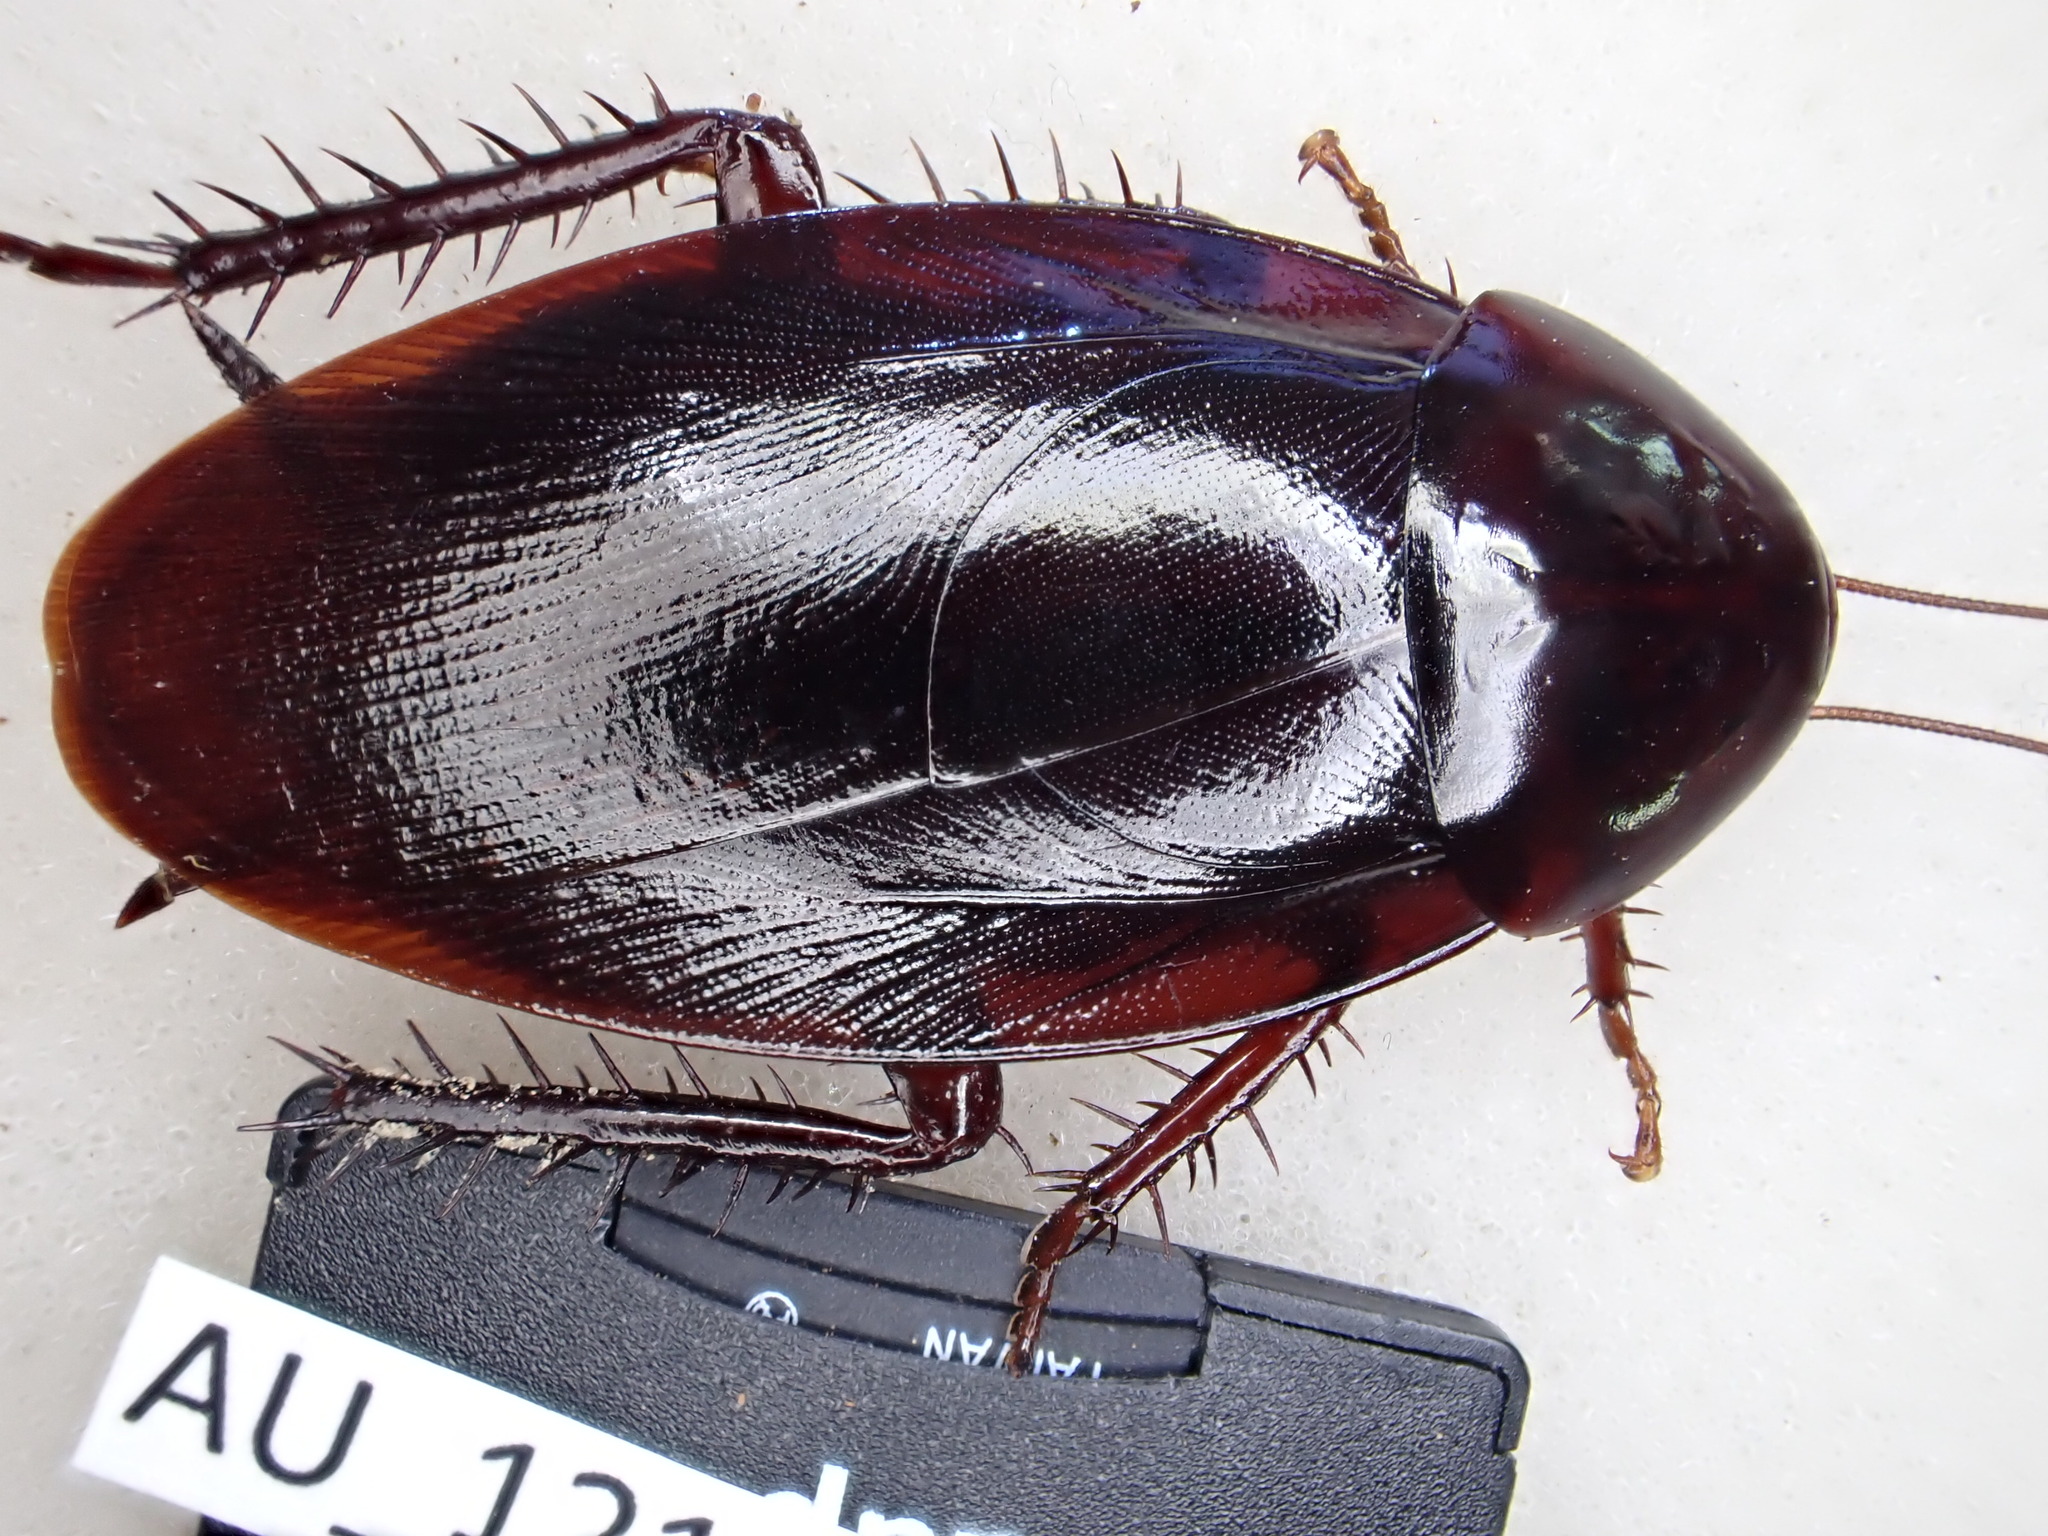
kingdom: Animalia
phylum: Arthropoda
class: Insecta
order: Blattodea
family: Blattidae
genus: Methana
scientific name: Methana convexa
